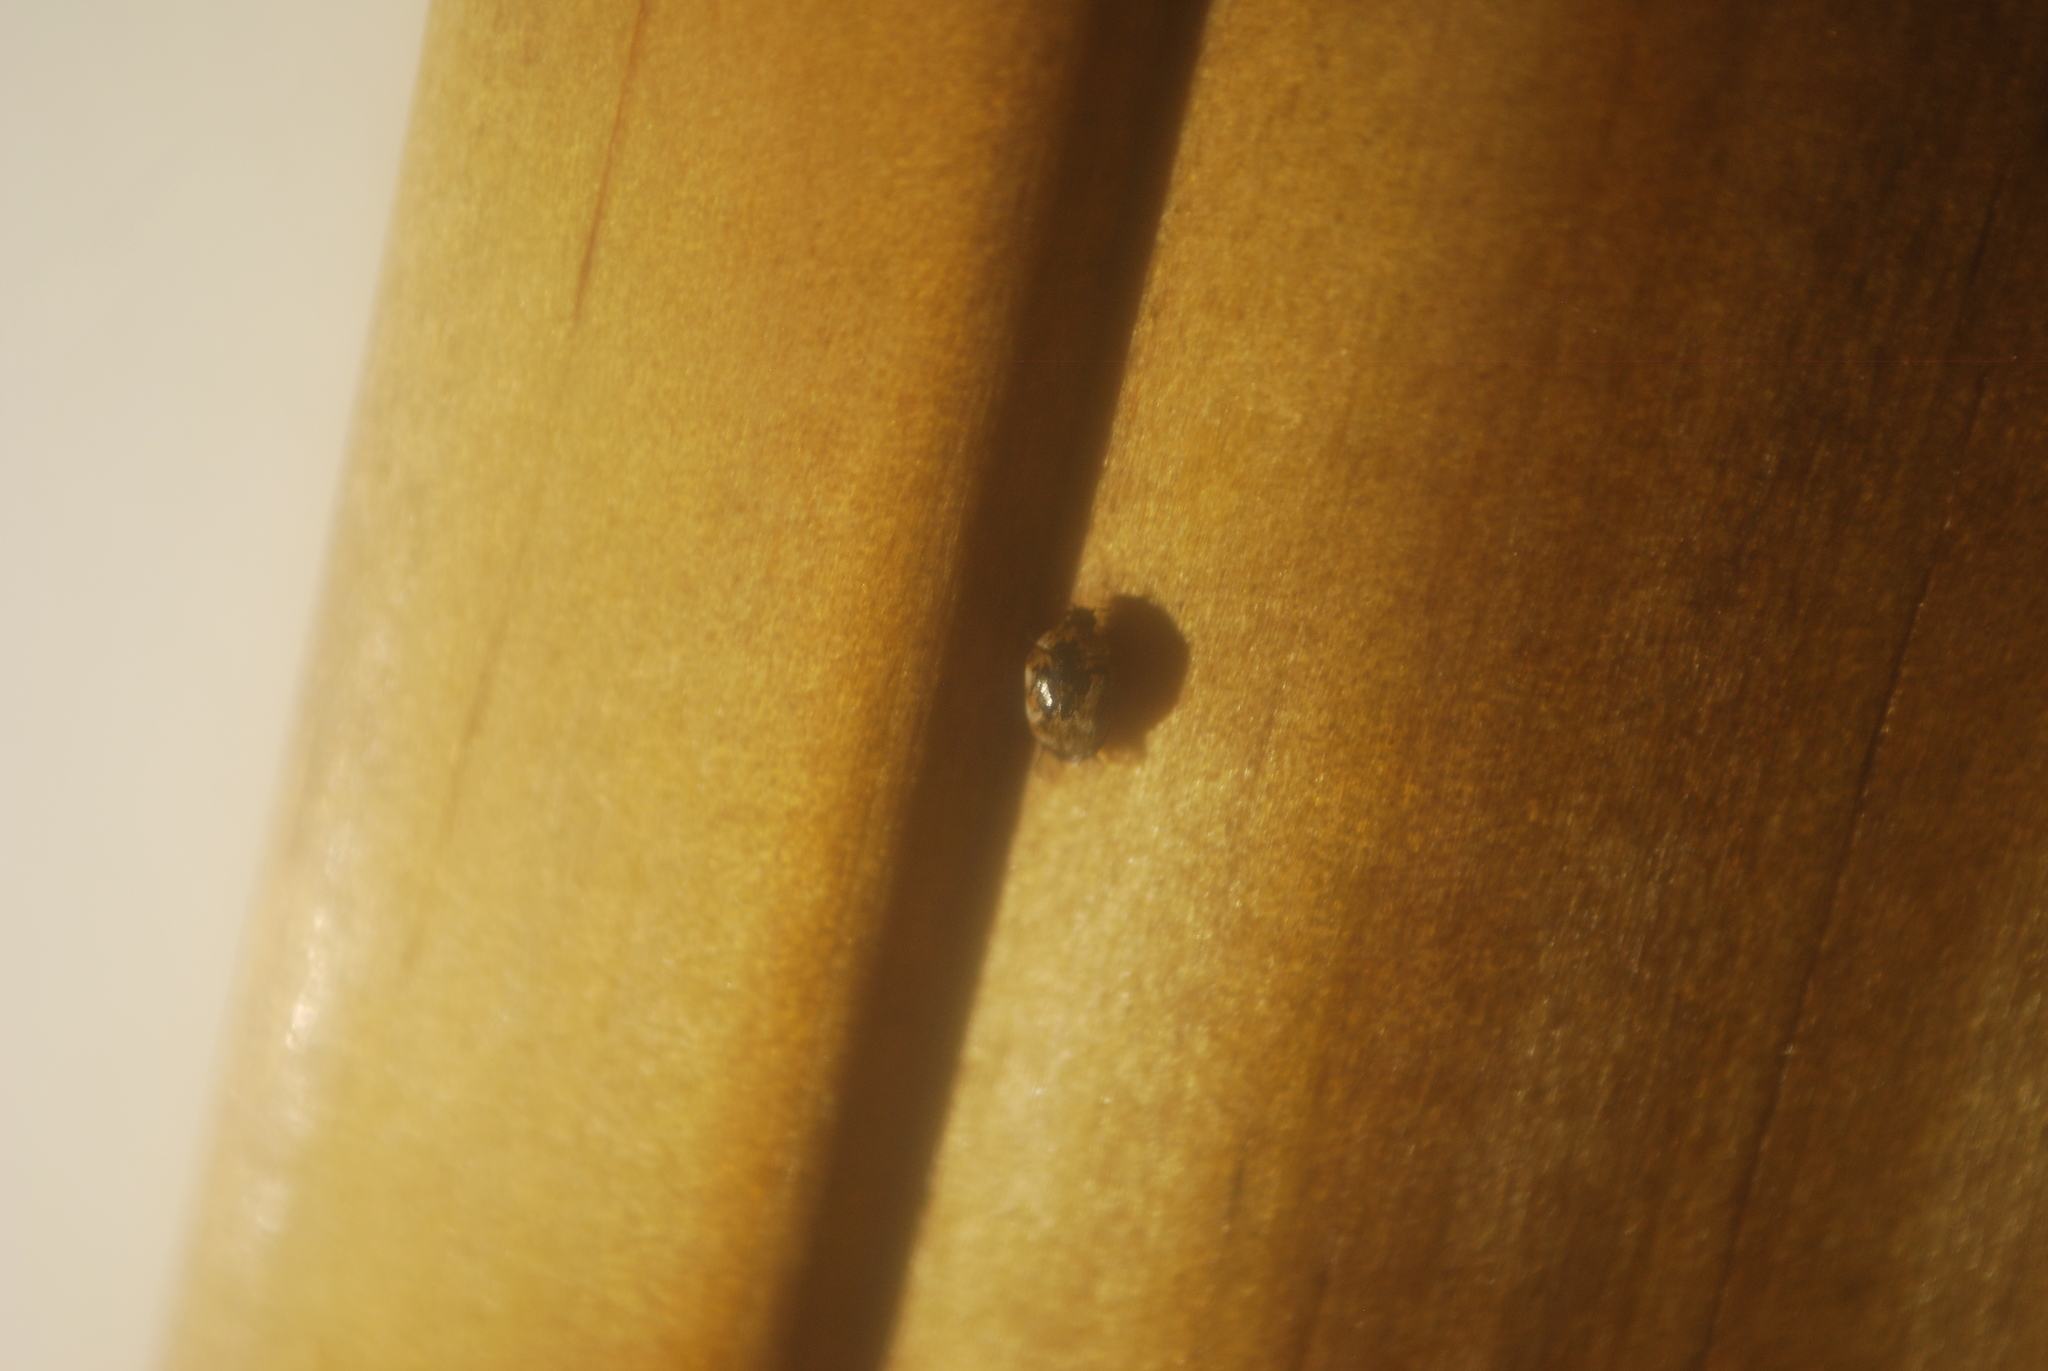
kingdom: Animalia
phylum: Arthropoda
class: Insecta
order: Coleoptera
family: Dermestidae
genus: Anthrenus
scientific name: Anthrenus verbasci
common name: Varied carpet beetle
